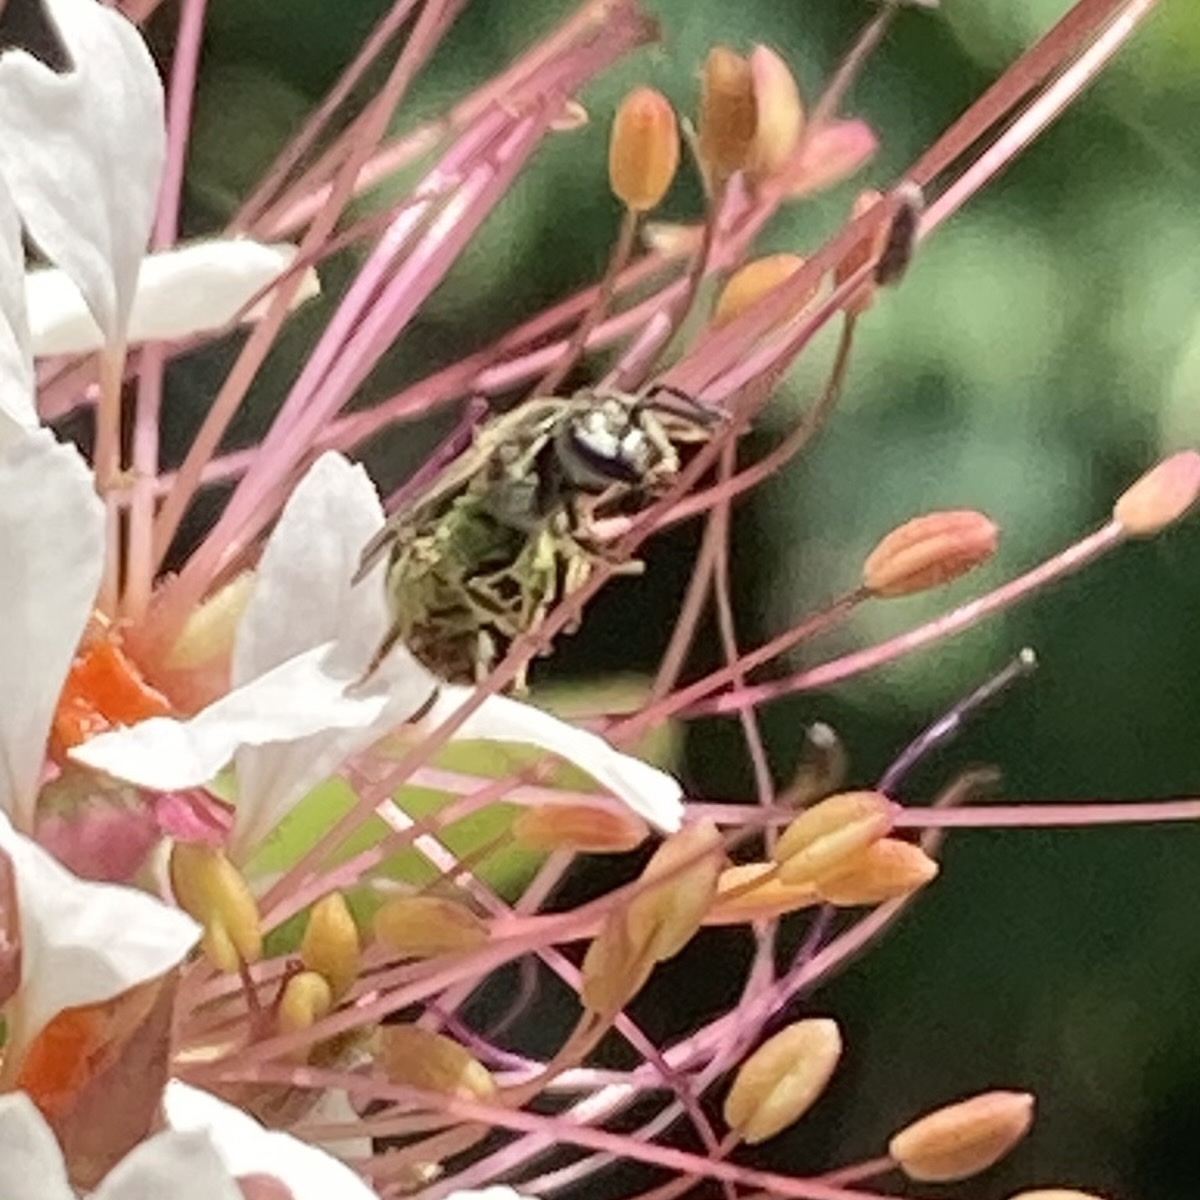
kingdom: Animalia
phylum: Arthropoda
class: Insecta
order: Hymenoptera
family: Halictidae
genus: Dialictus
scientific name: Dialictus
